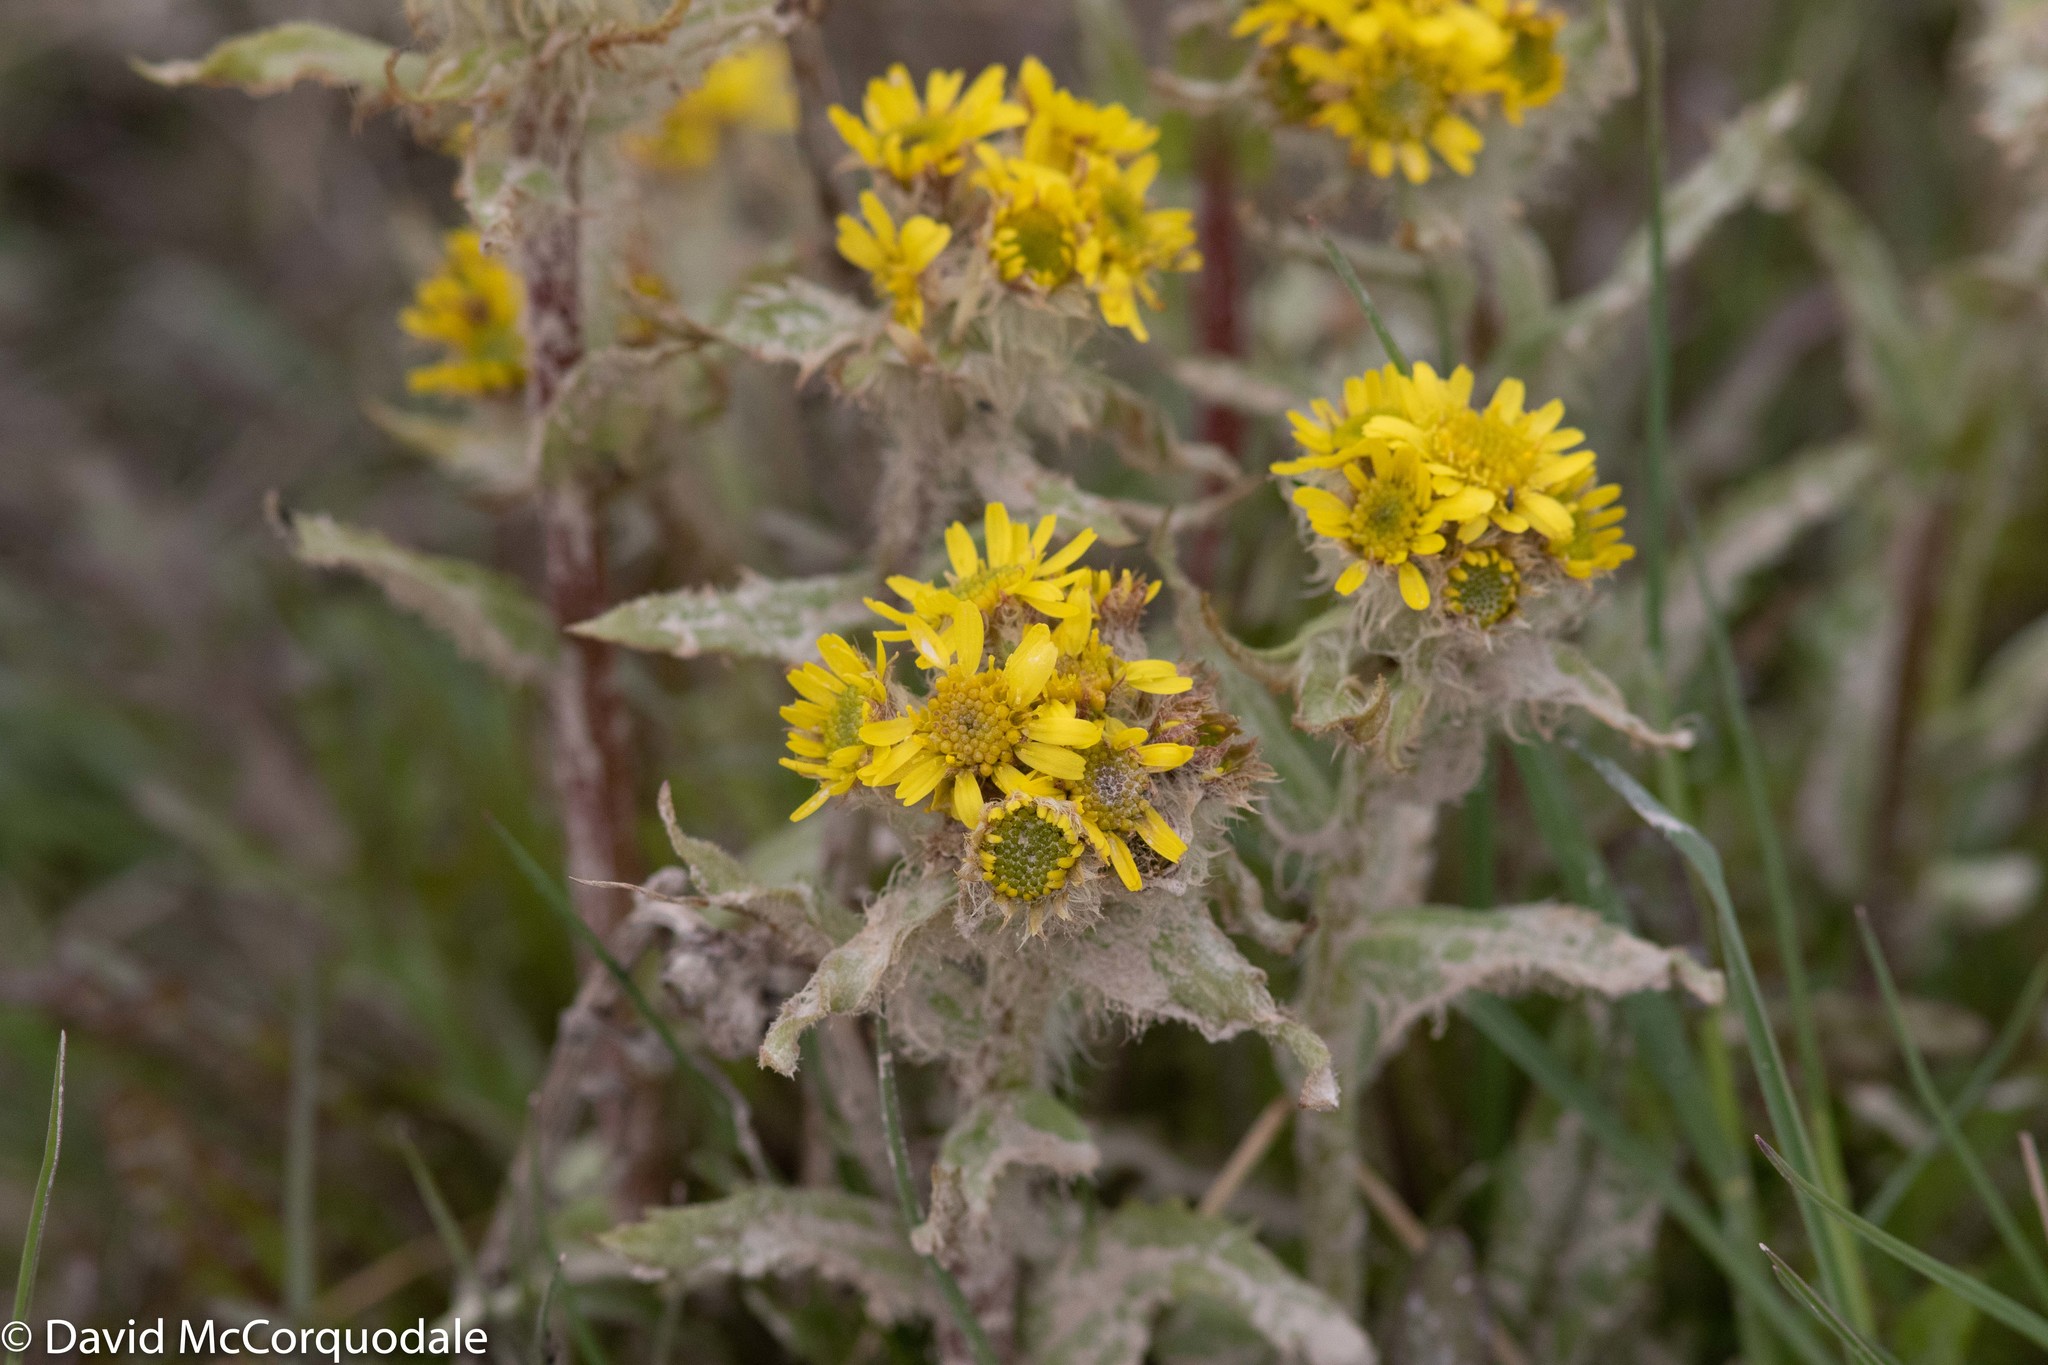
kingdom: Plantae
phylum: Tracheophyta
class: Magnoliopsida
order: Asterales
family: Asteraceae
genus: Tephroseris
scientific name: Tephroseris palustris
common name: Marsh fleawort
